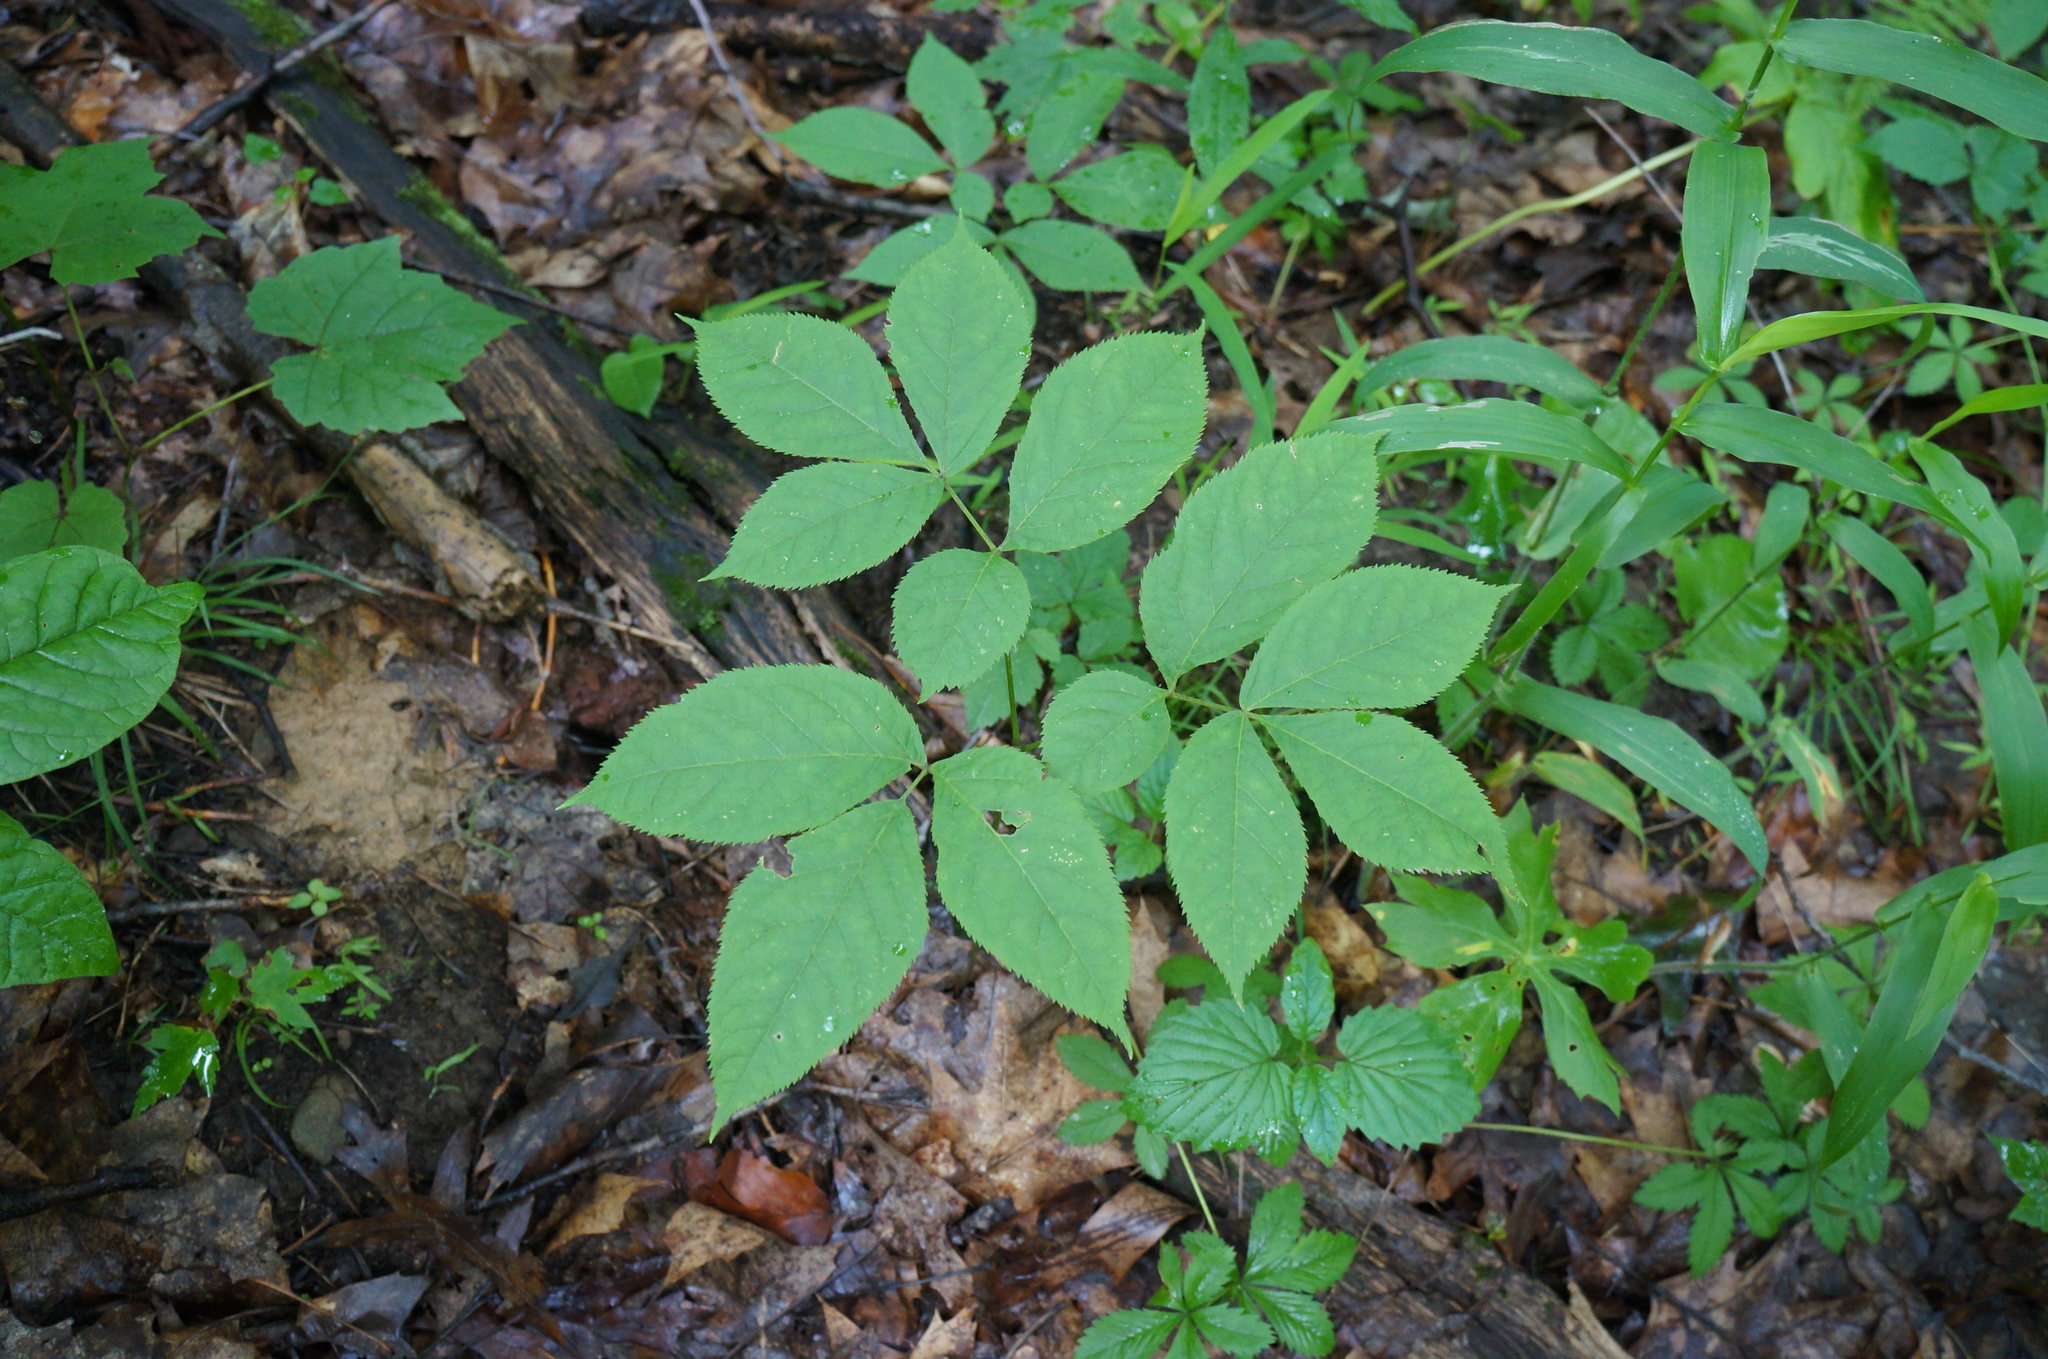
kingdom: Plantae
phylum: Tracheophyta
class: Magnoliopsida
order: Apiales
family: Araliaceae
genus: Aralia
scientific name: Aralia nudicaulis
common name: Wild sarsaparilla
